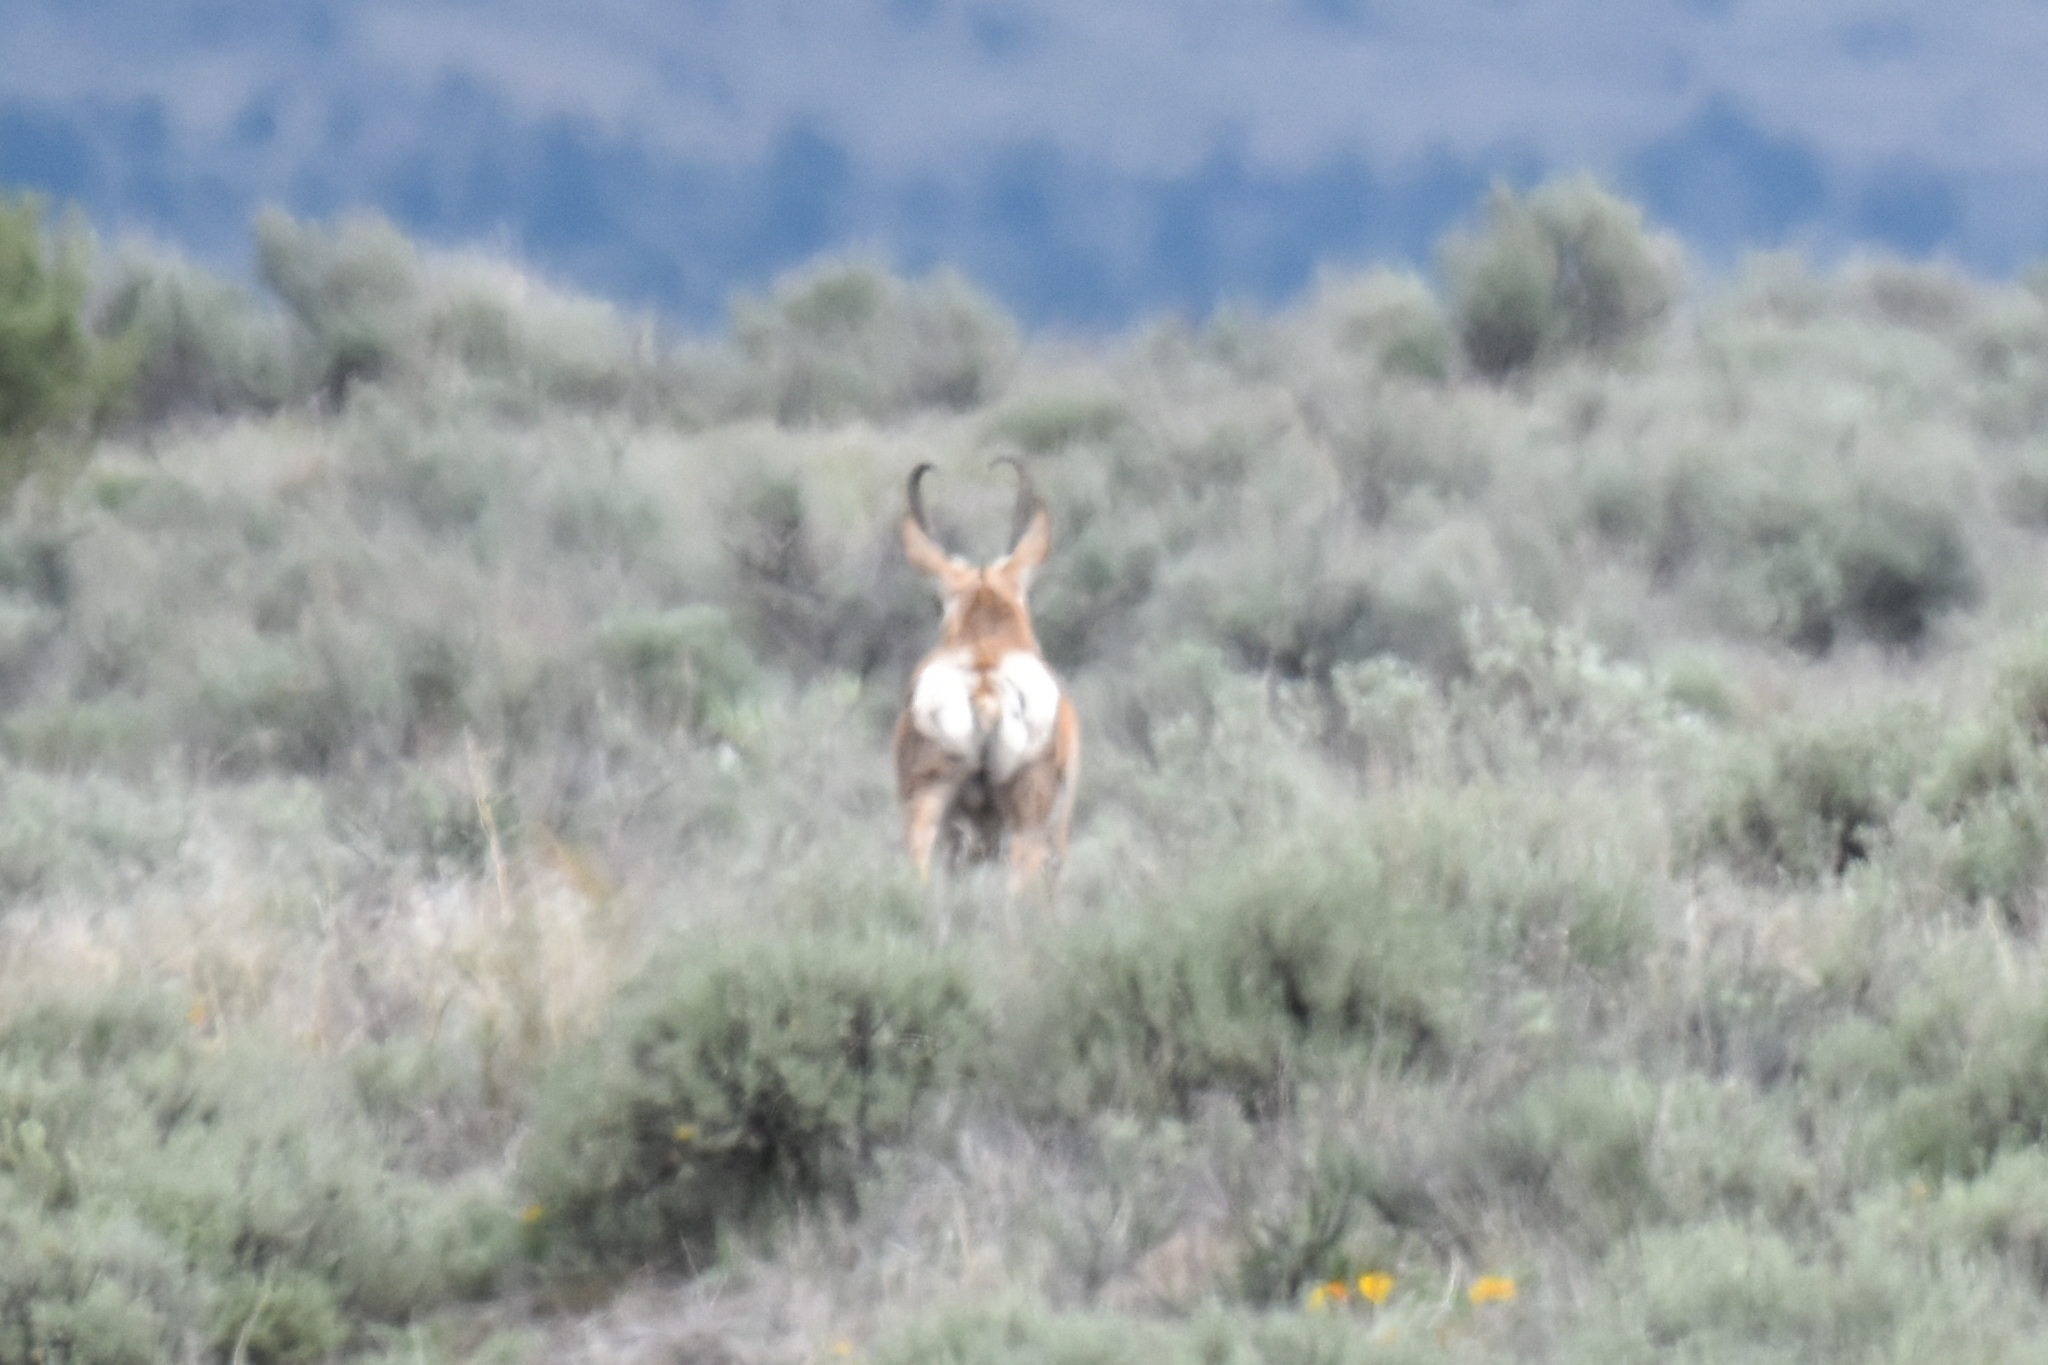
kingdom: Animalia
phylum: Chordata
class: Mammalia
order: Artiodactyla
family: Antilocapridae
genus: Antilocapra
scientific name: Antilocapra americana
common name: Pronghorn
